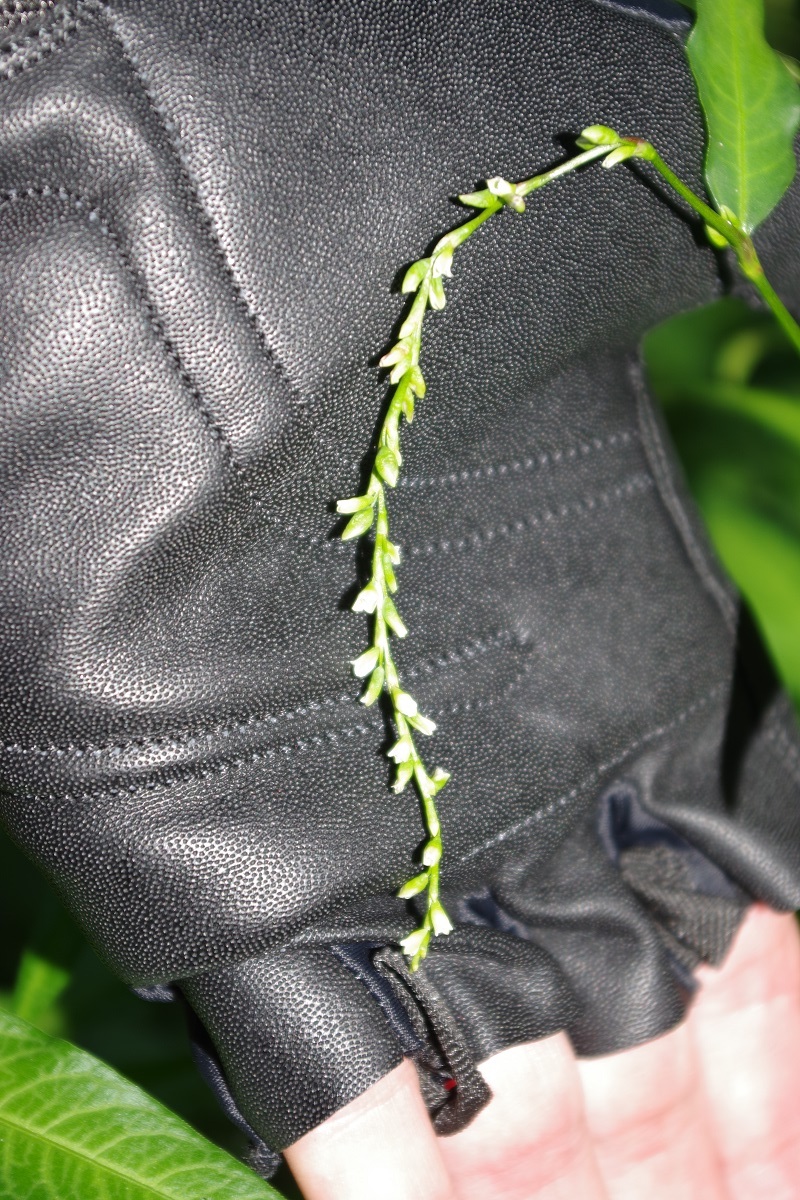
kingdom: Plantae
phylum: Tracheophyta
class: Magnoliopsida
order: Caryophyllales
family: Polygonaceae
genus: Persicaria
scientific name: Persicaria hydropiper
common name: Water-pepper
